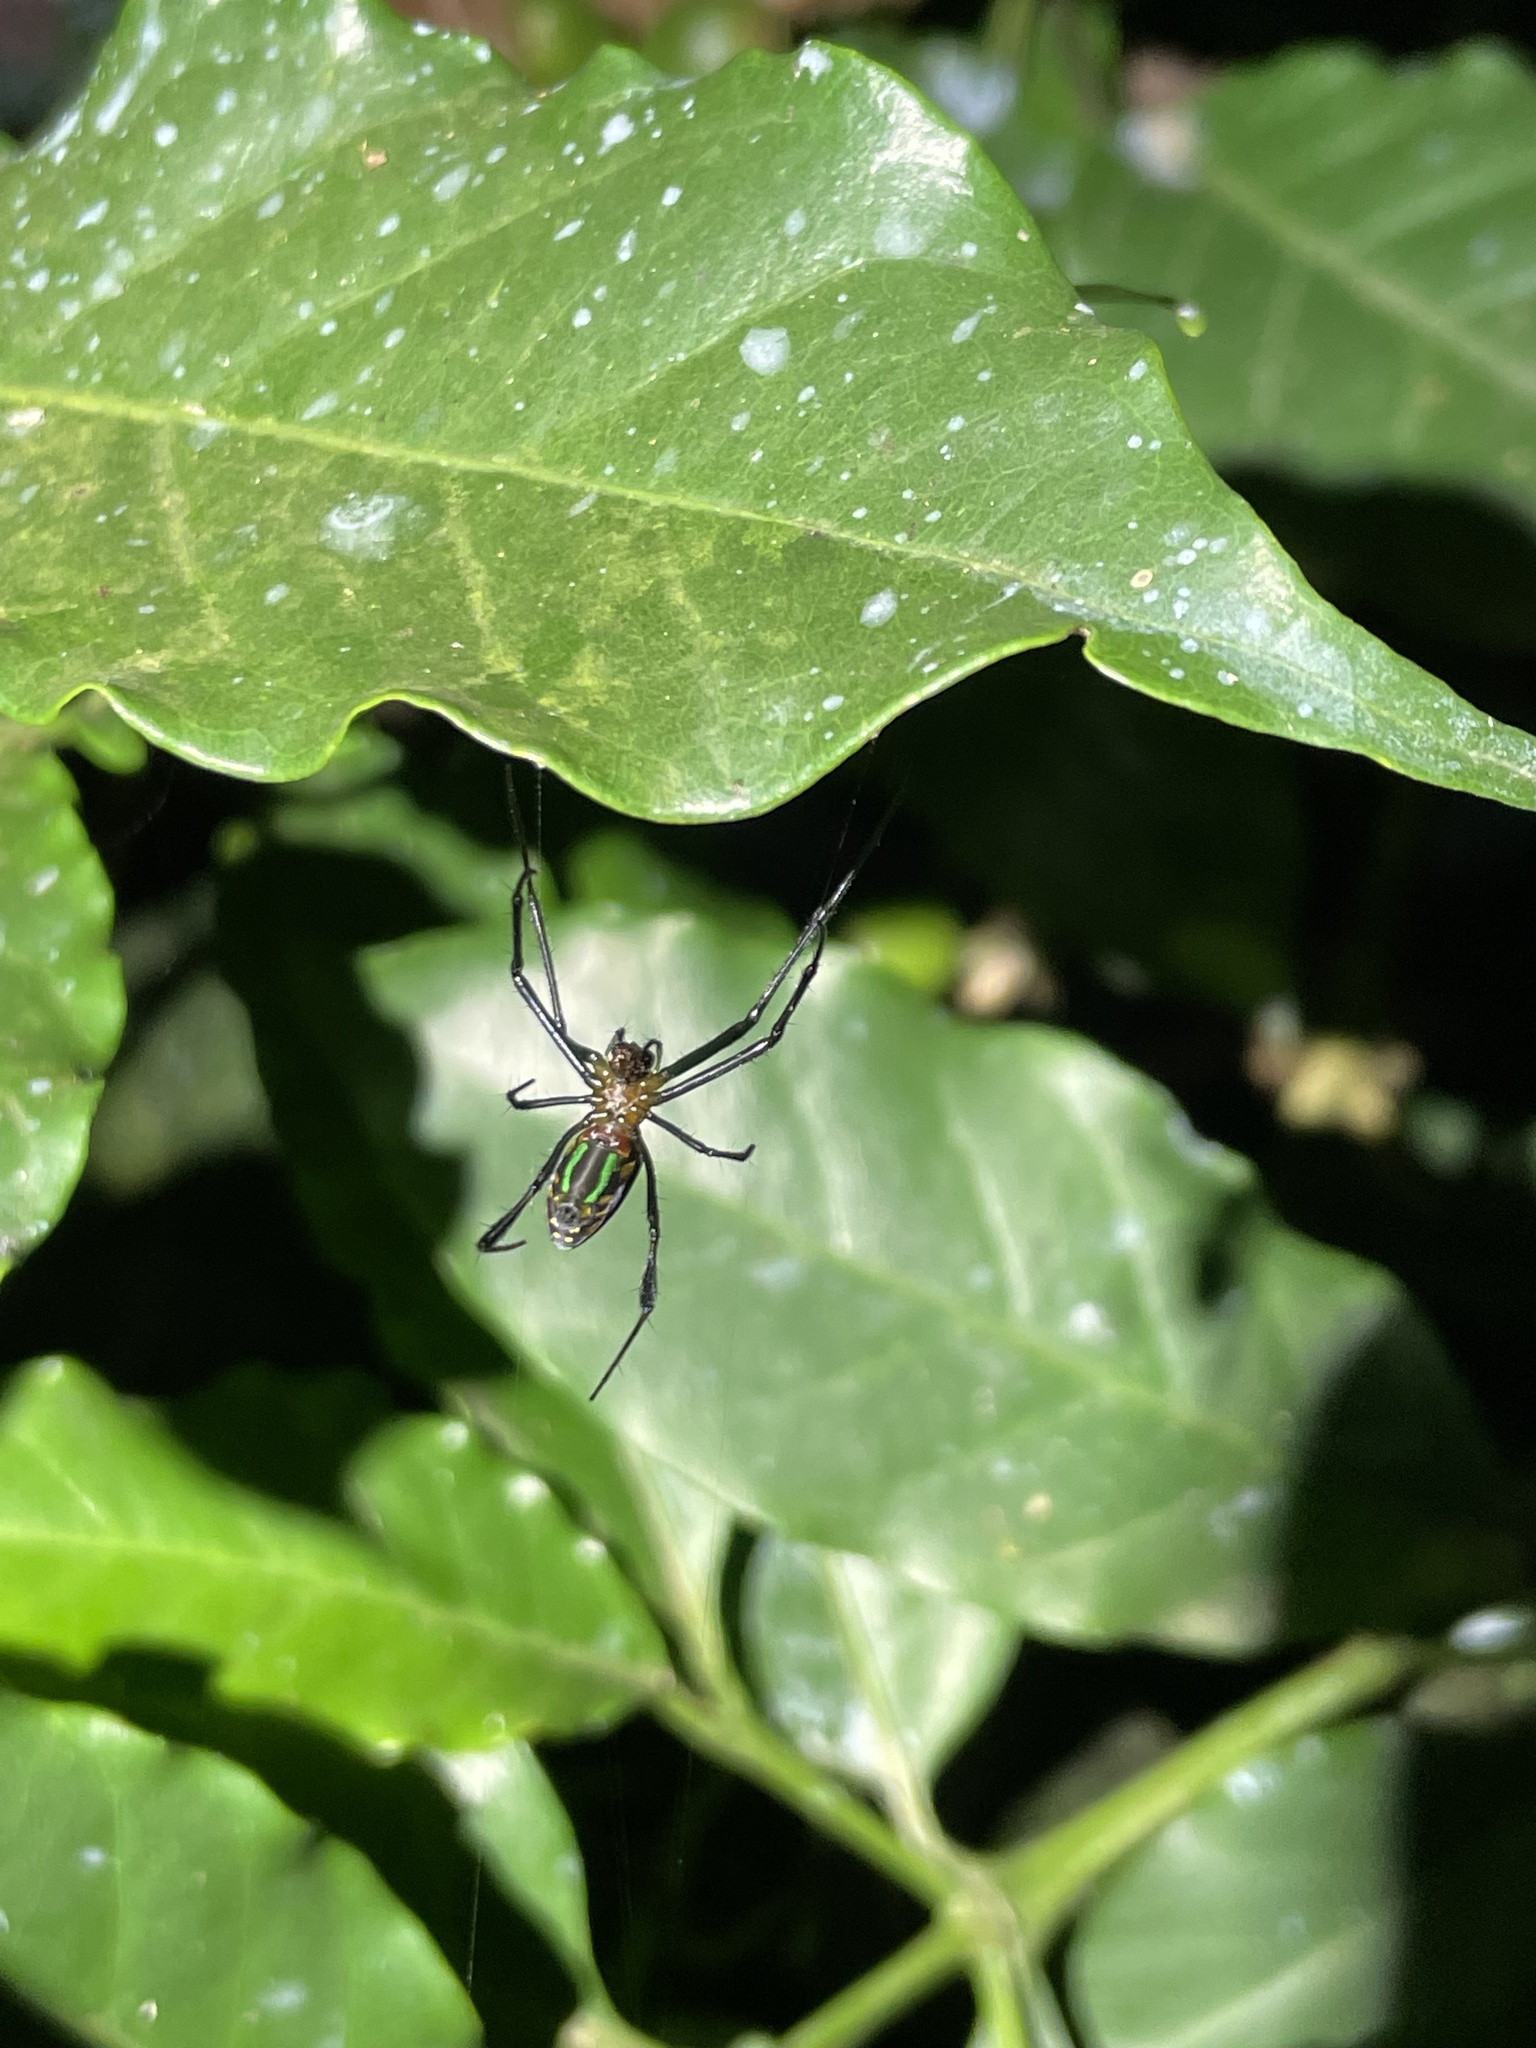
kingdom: Animalia
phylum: Arthropoda
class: Arachnida
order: Araneae
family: Tetragnathidae
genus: Leucauge
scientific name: Leucauge tessellata
